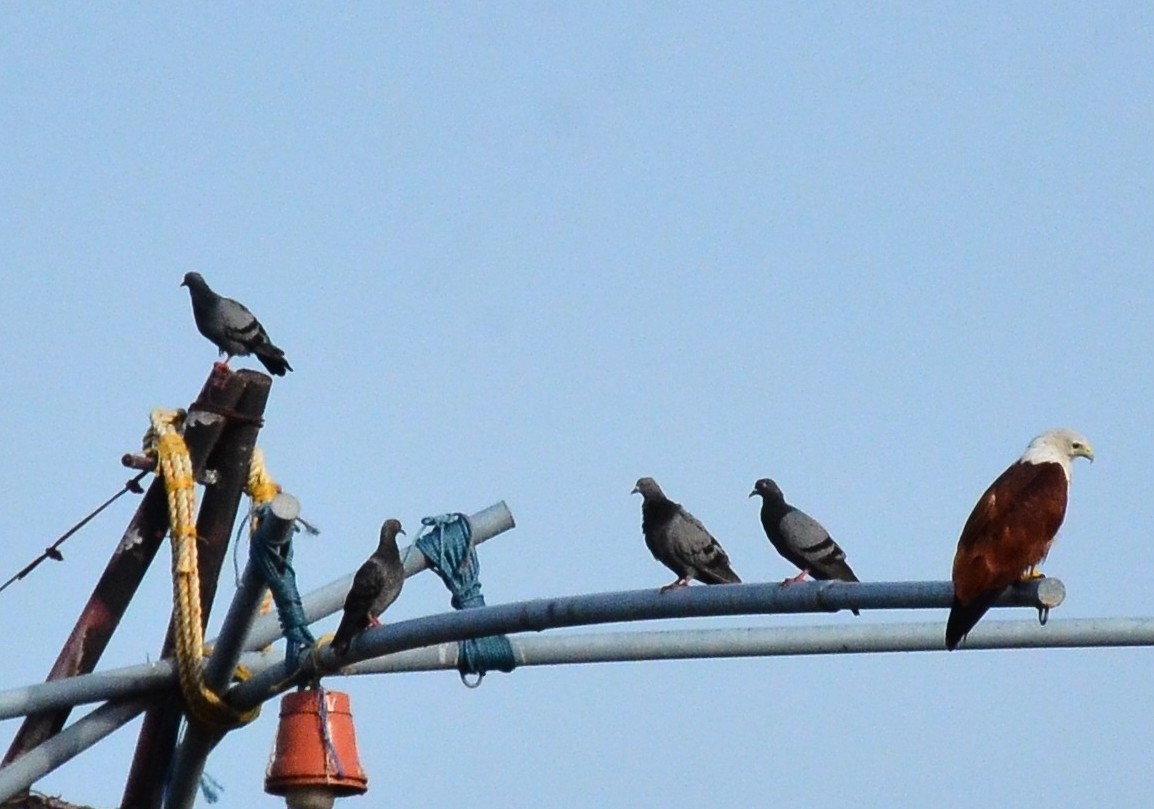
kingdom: Animalia
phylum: Chordata
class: Aves
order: Columbiformes
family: Columbidae
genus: Columba
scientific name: Columba livia
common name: Rock pigeon
